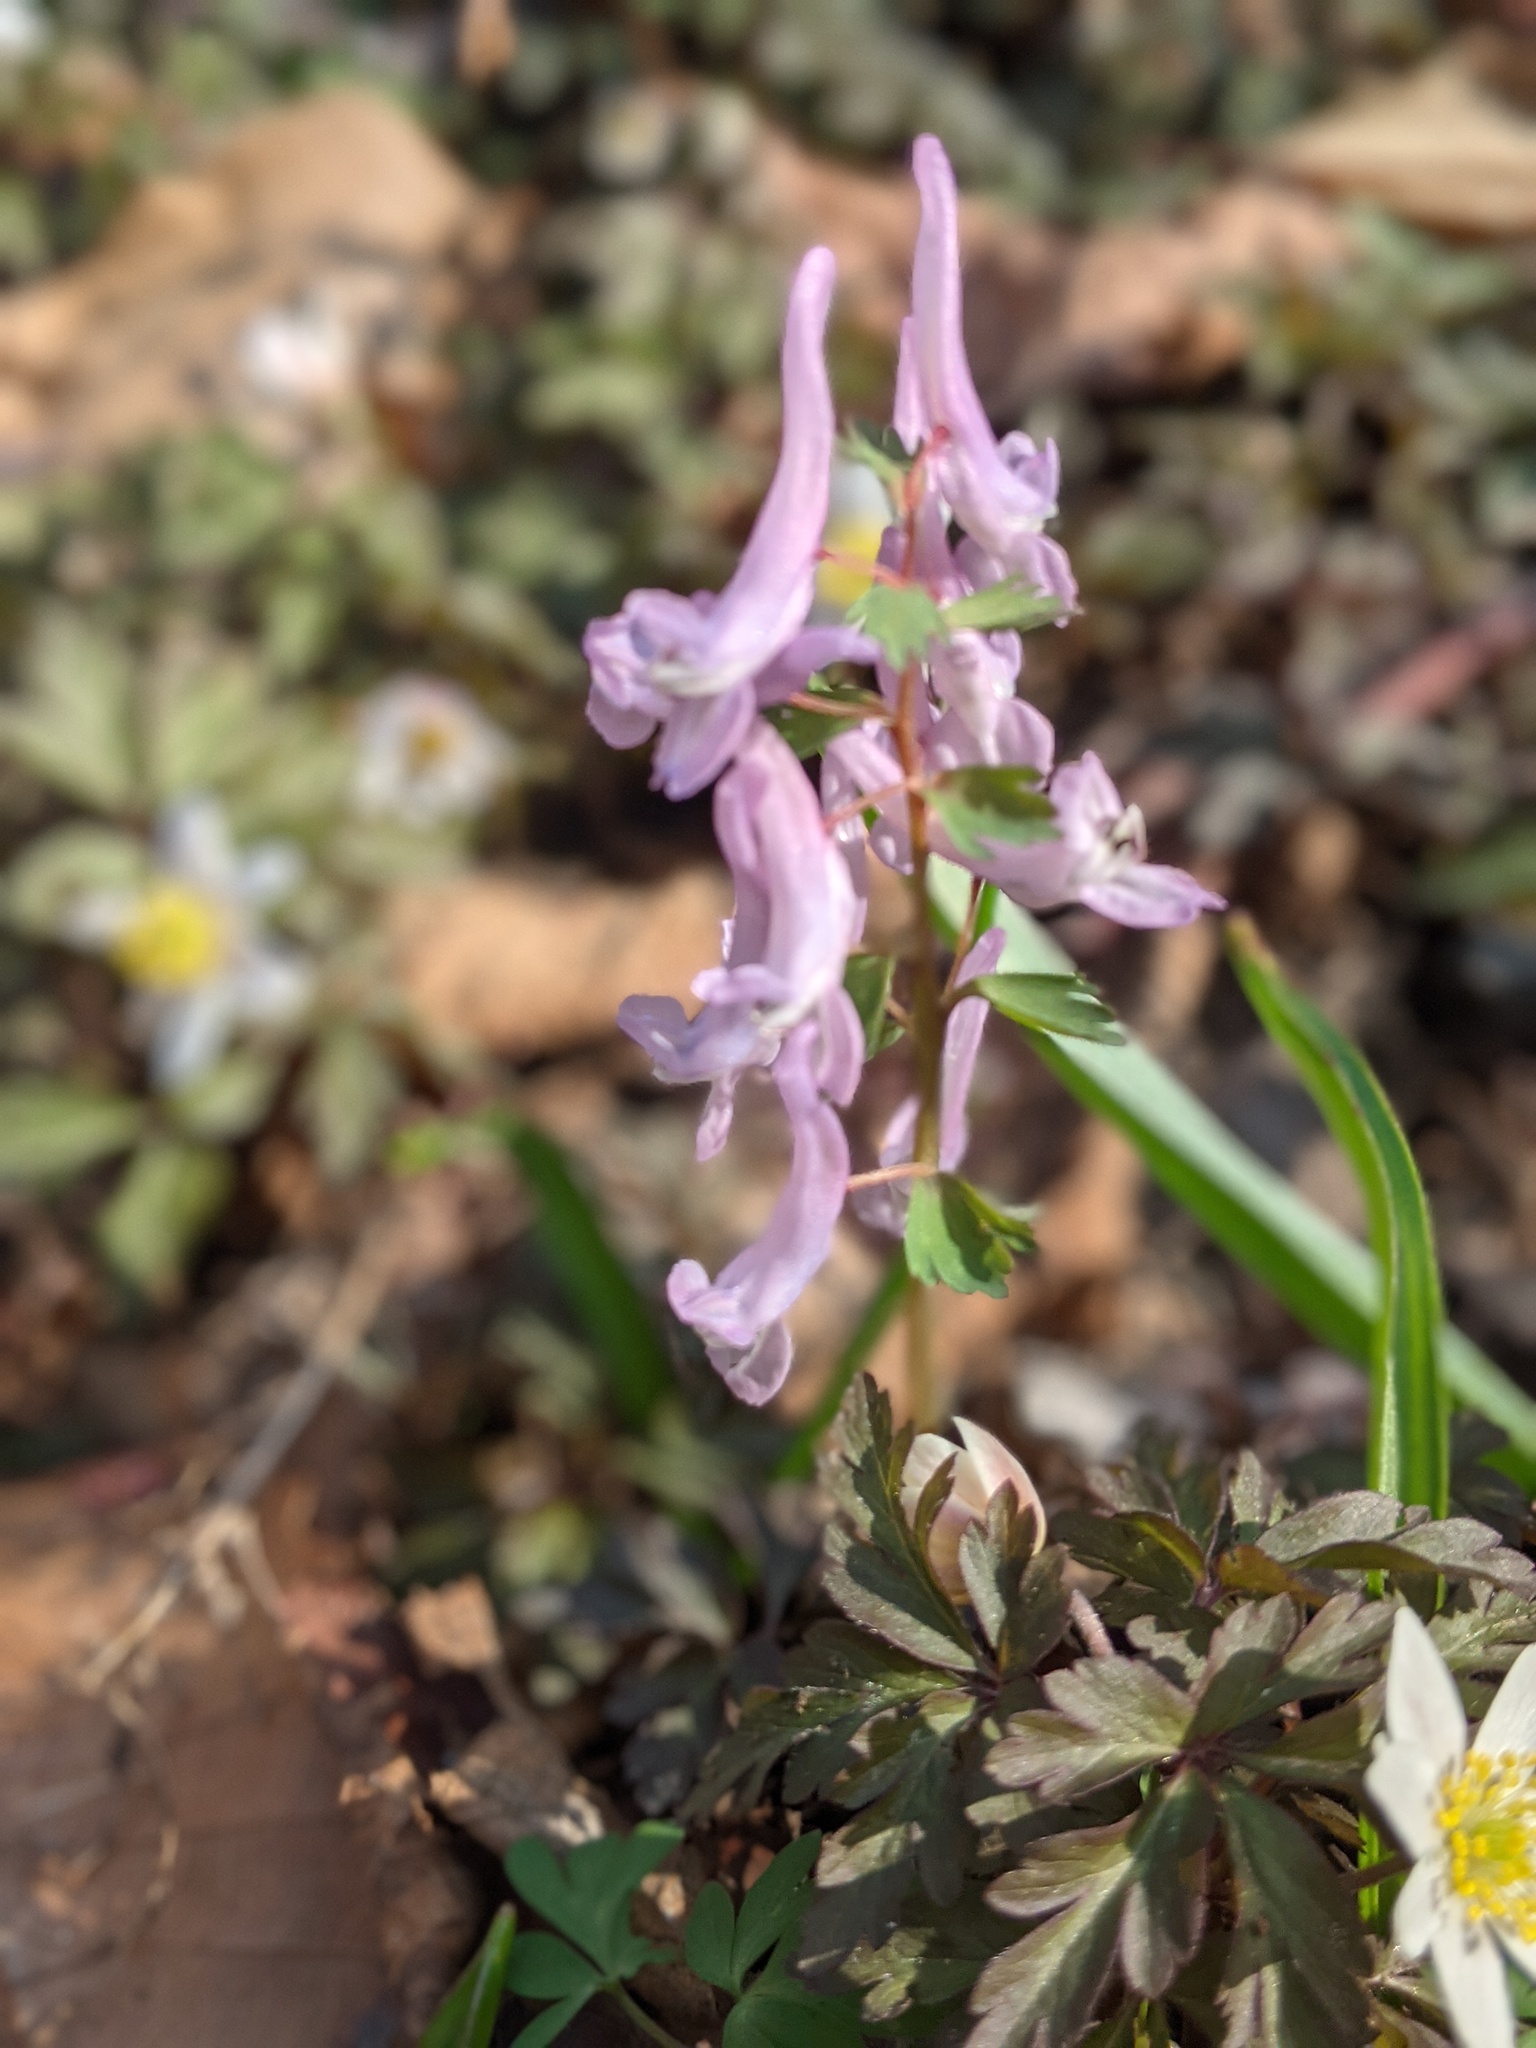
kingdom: Plantae
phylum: Tracheophyta
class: Magnoliopsida
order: Ranunculales
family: Papaveraceae
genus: Corydalis
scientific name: Corydalis solida
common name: Bird-in-a-bush
